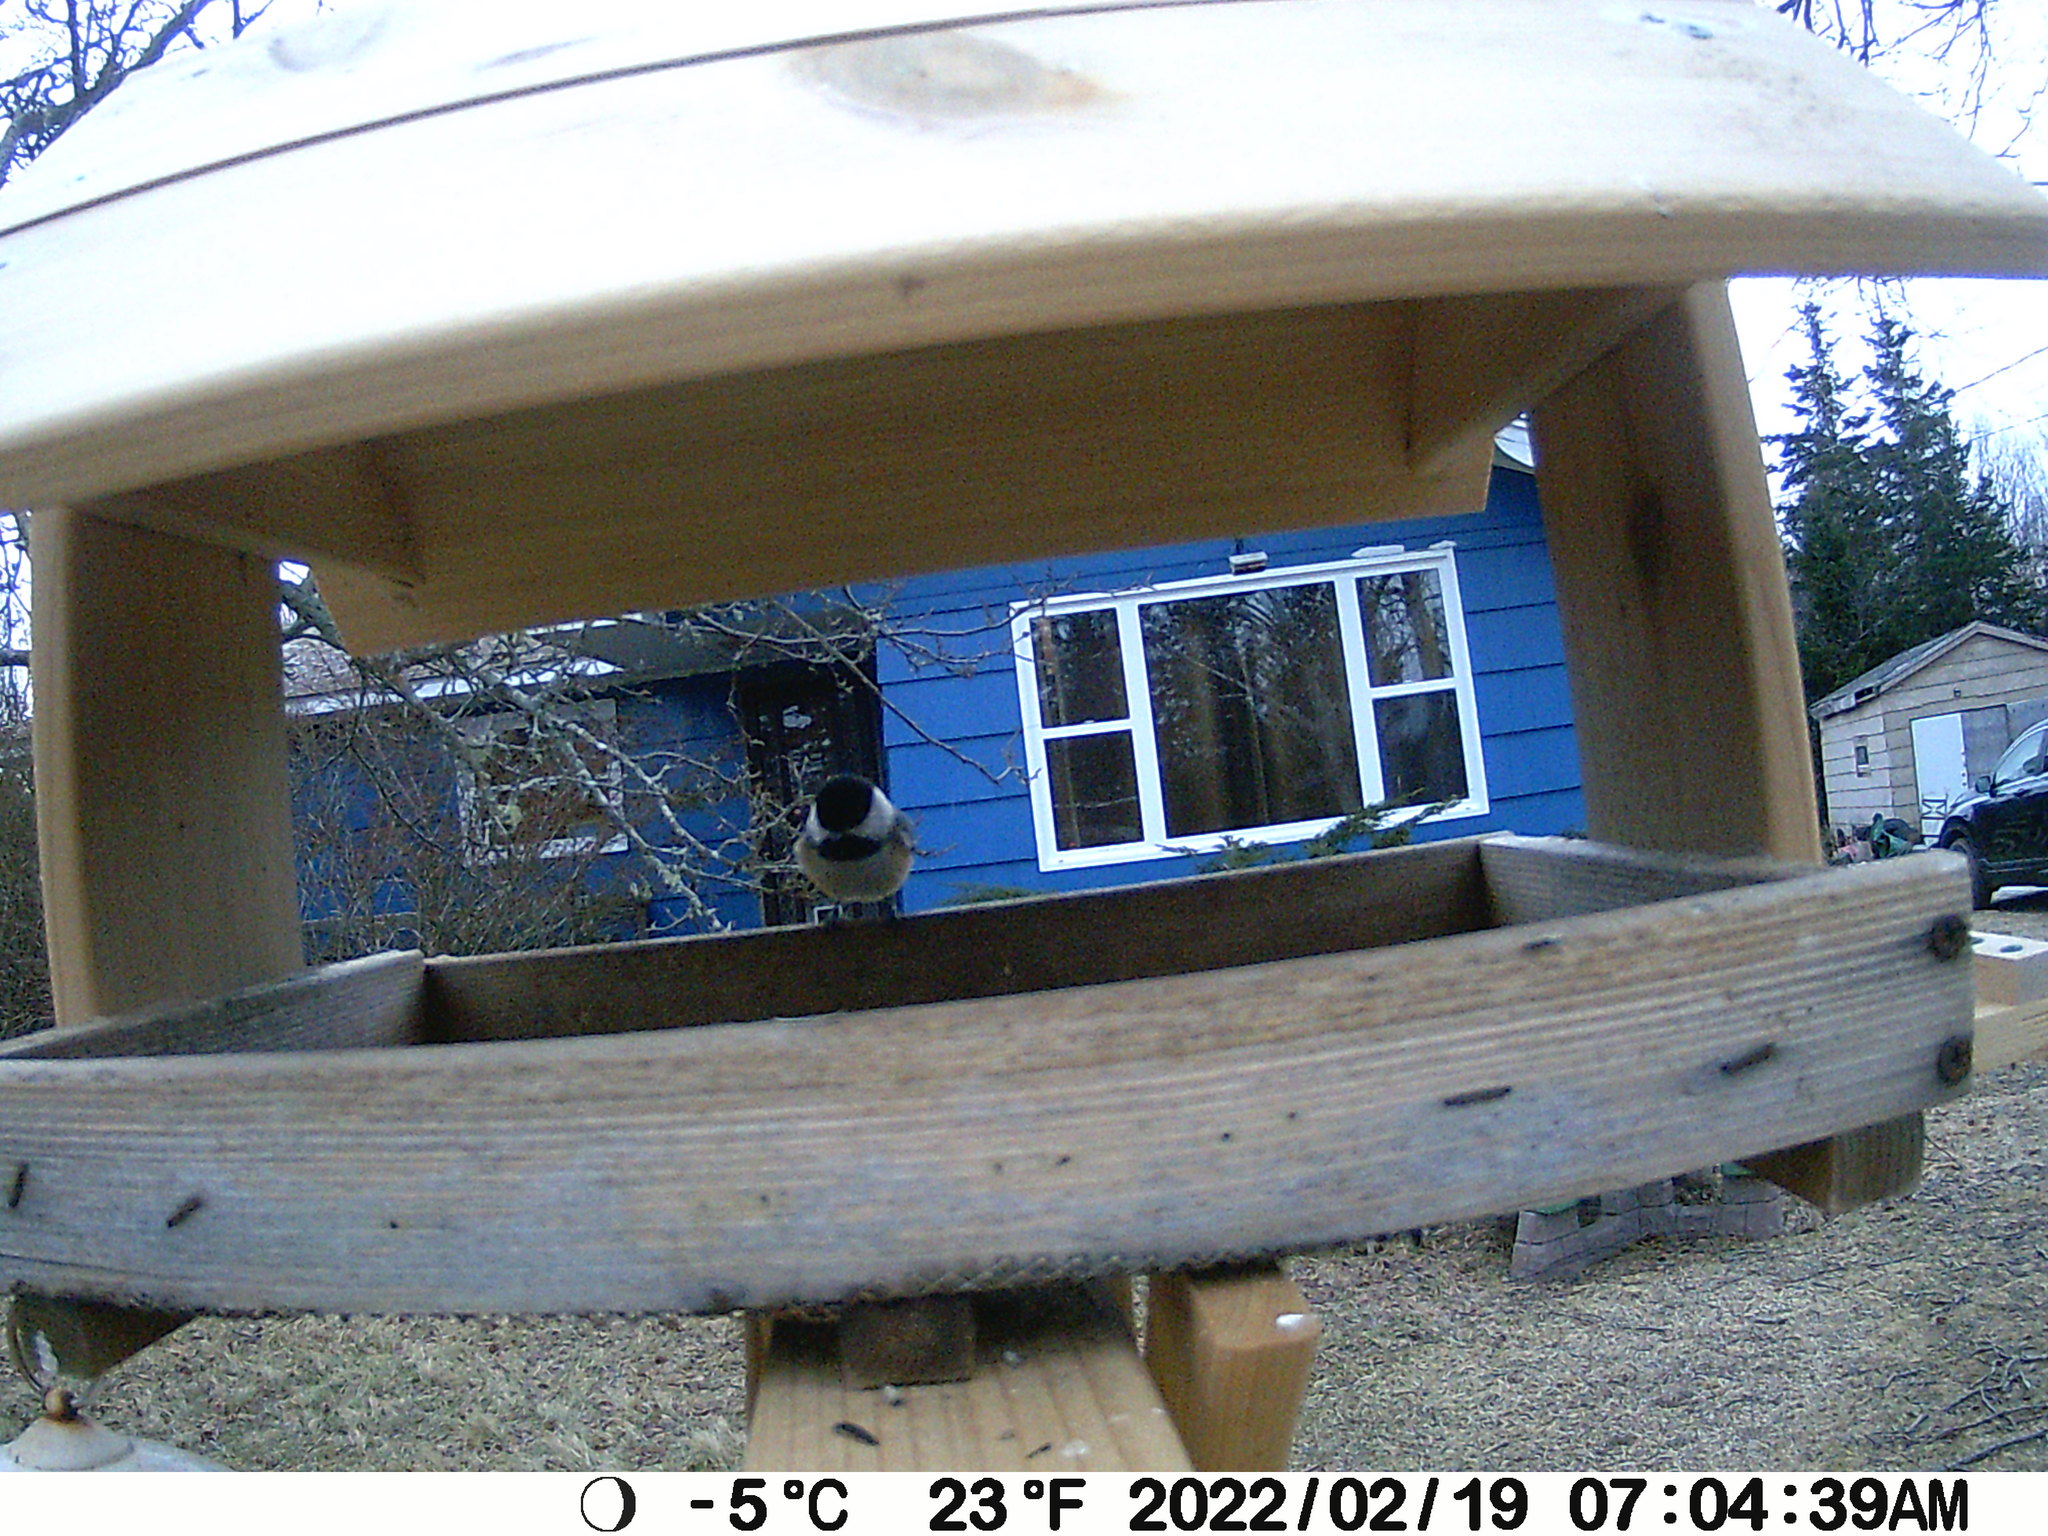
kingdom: Animalia
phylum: Chordata
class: Aves
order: Passeriformes
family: Paridae
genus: Poecile
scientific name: Poecile atricapillus
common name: Black-capped chickadee
